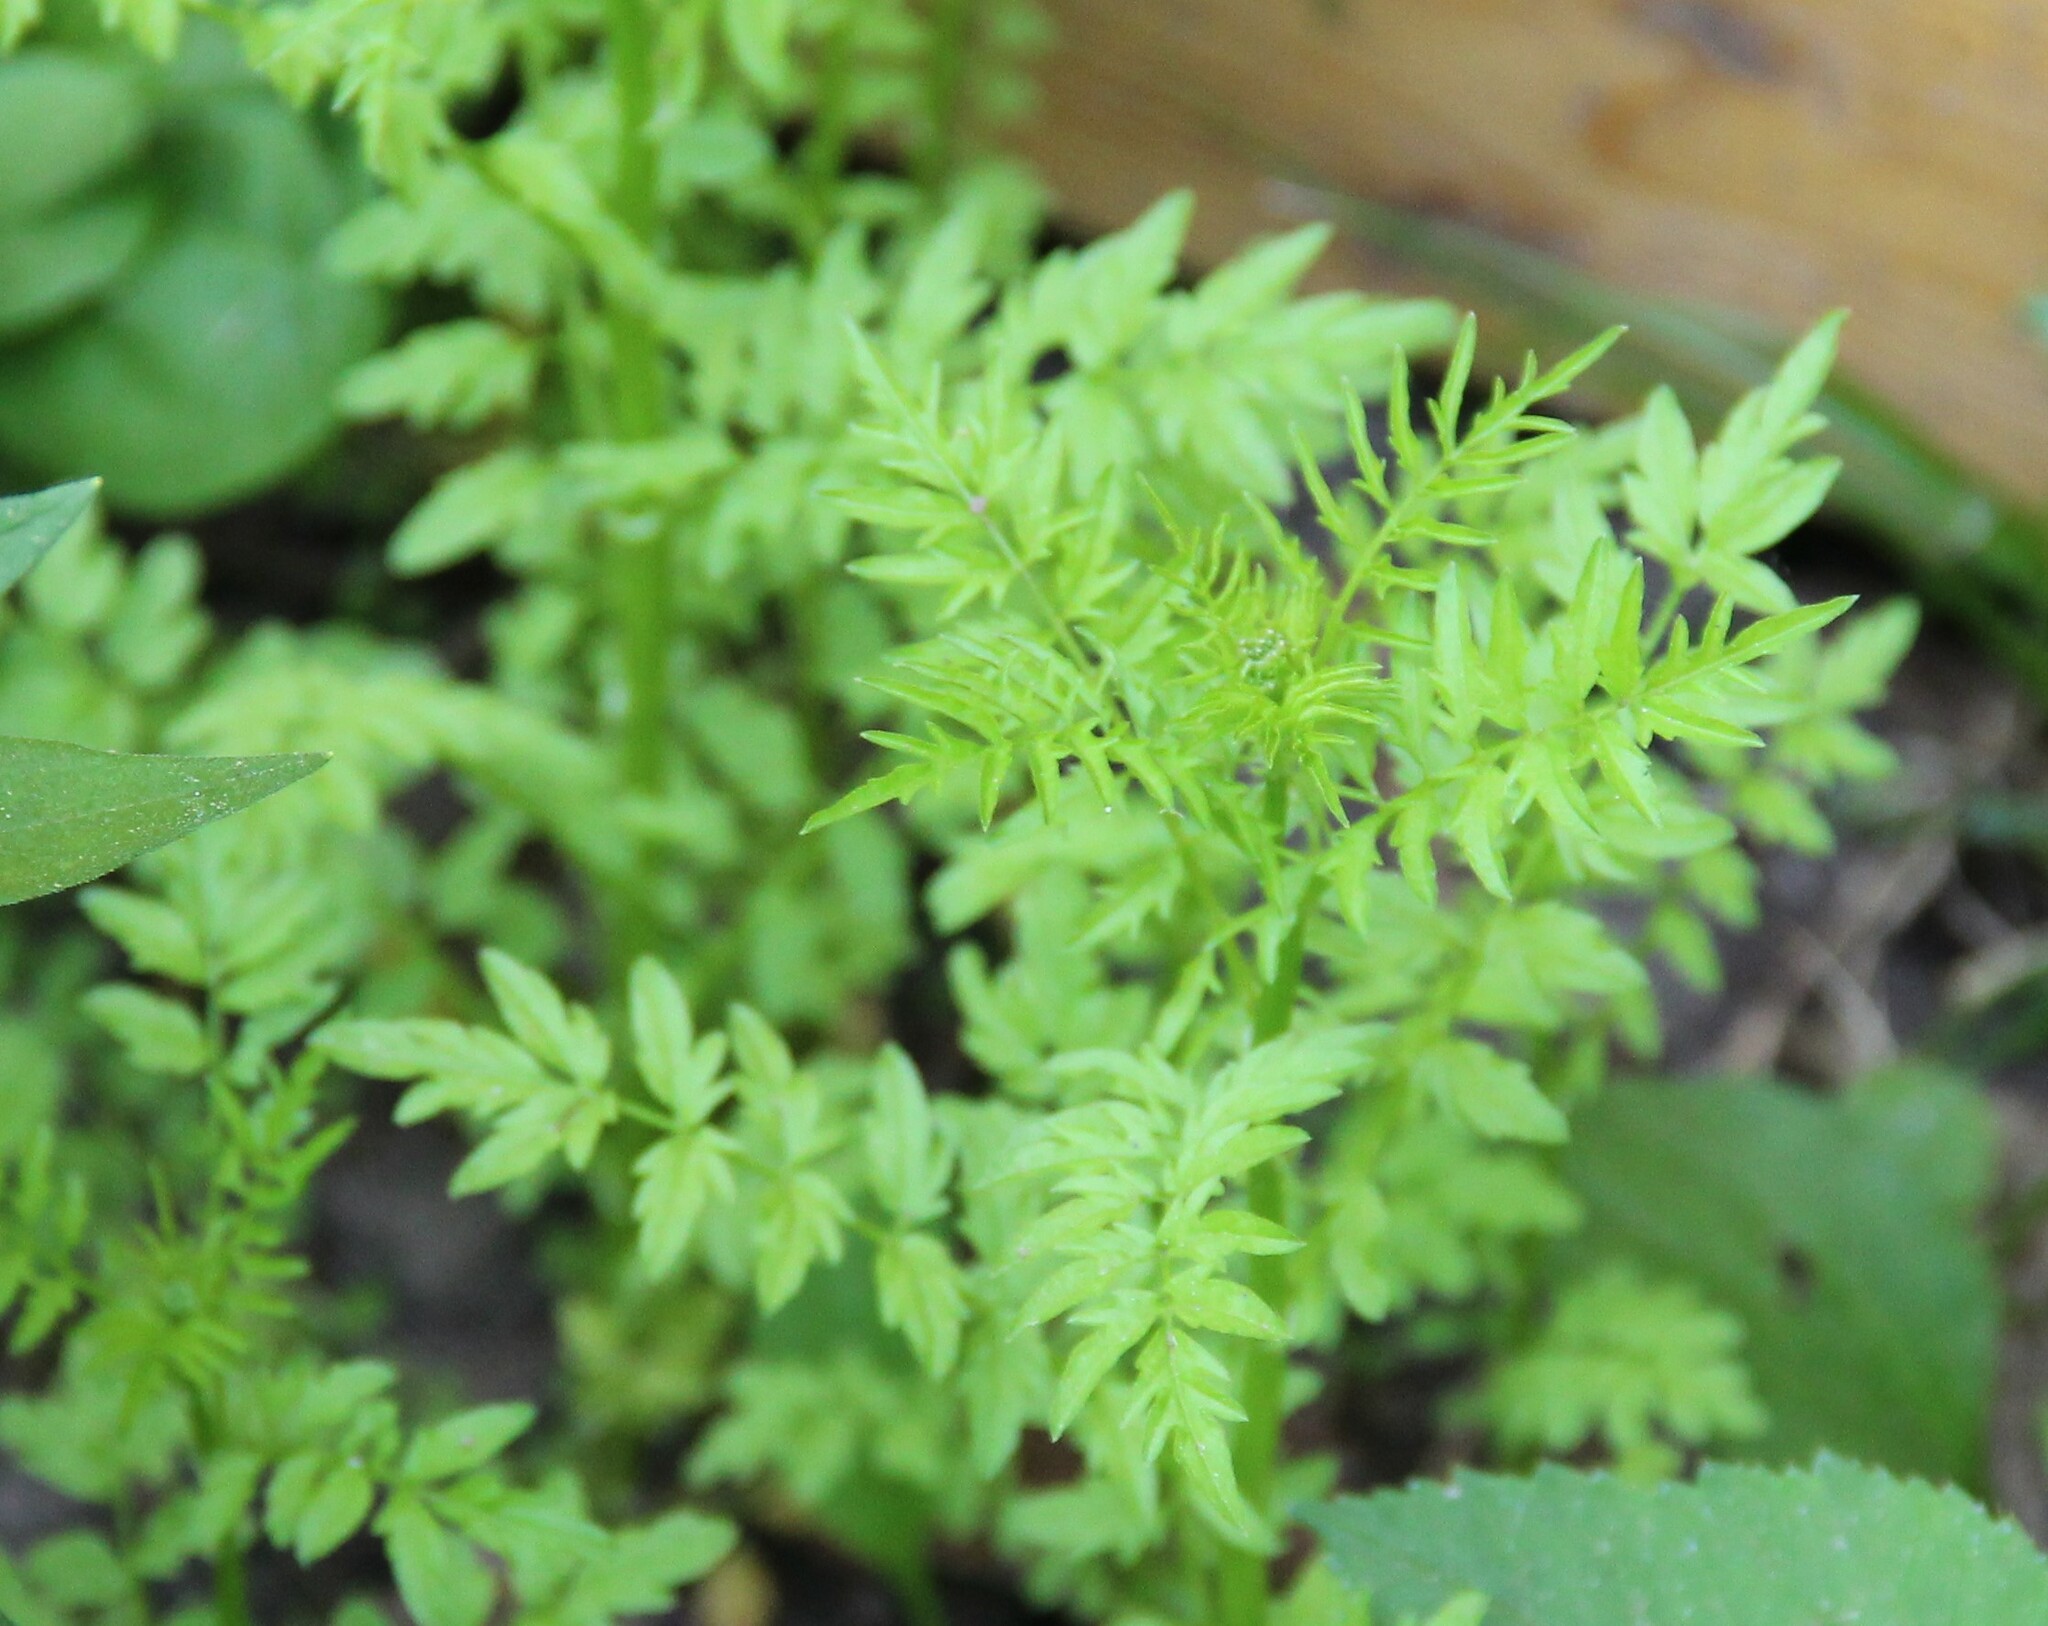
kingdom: Plantae
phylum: Tracheophyta
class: Magnoliopsida
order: Brassicales
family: Brassicaceae
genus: Cardamine
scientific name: Cardamine impatiens
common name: Narrow-leaved bitter-cress
